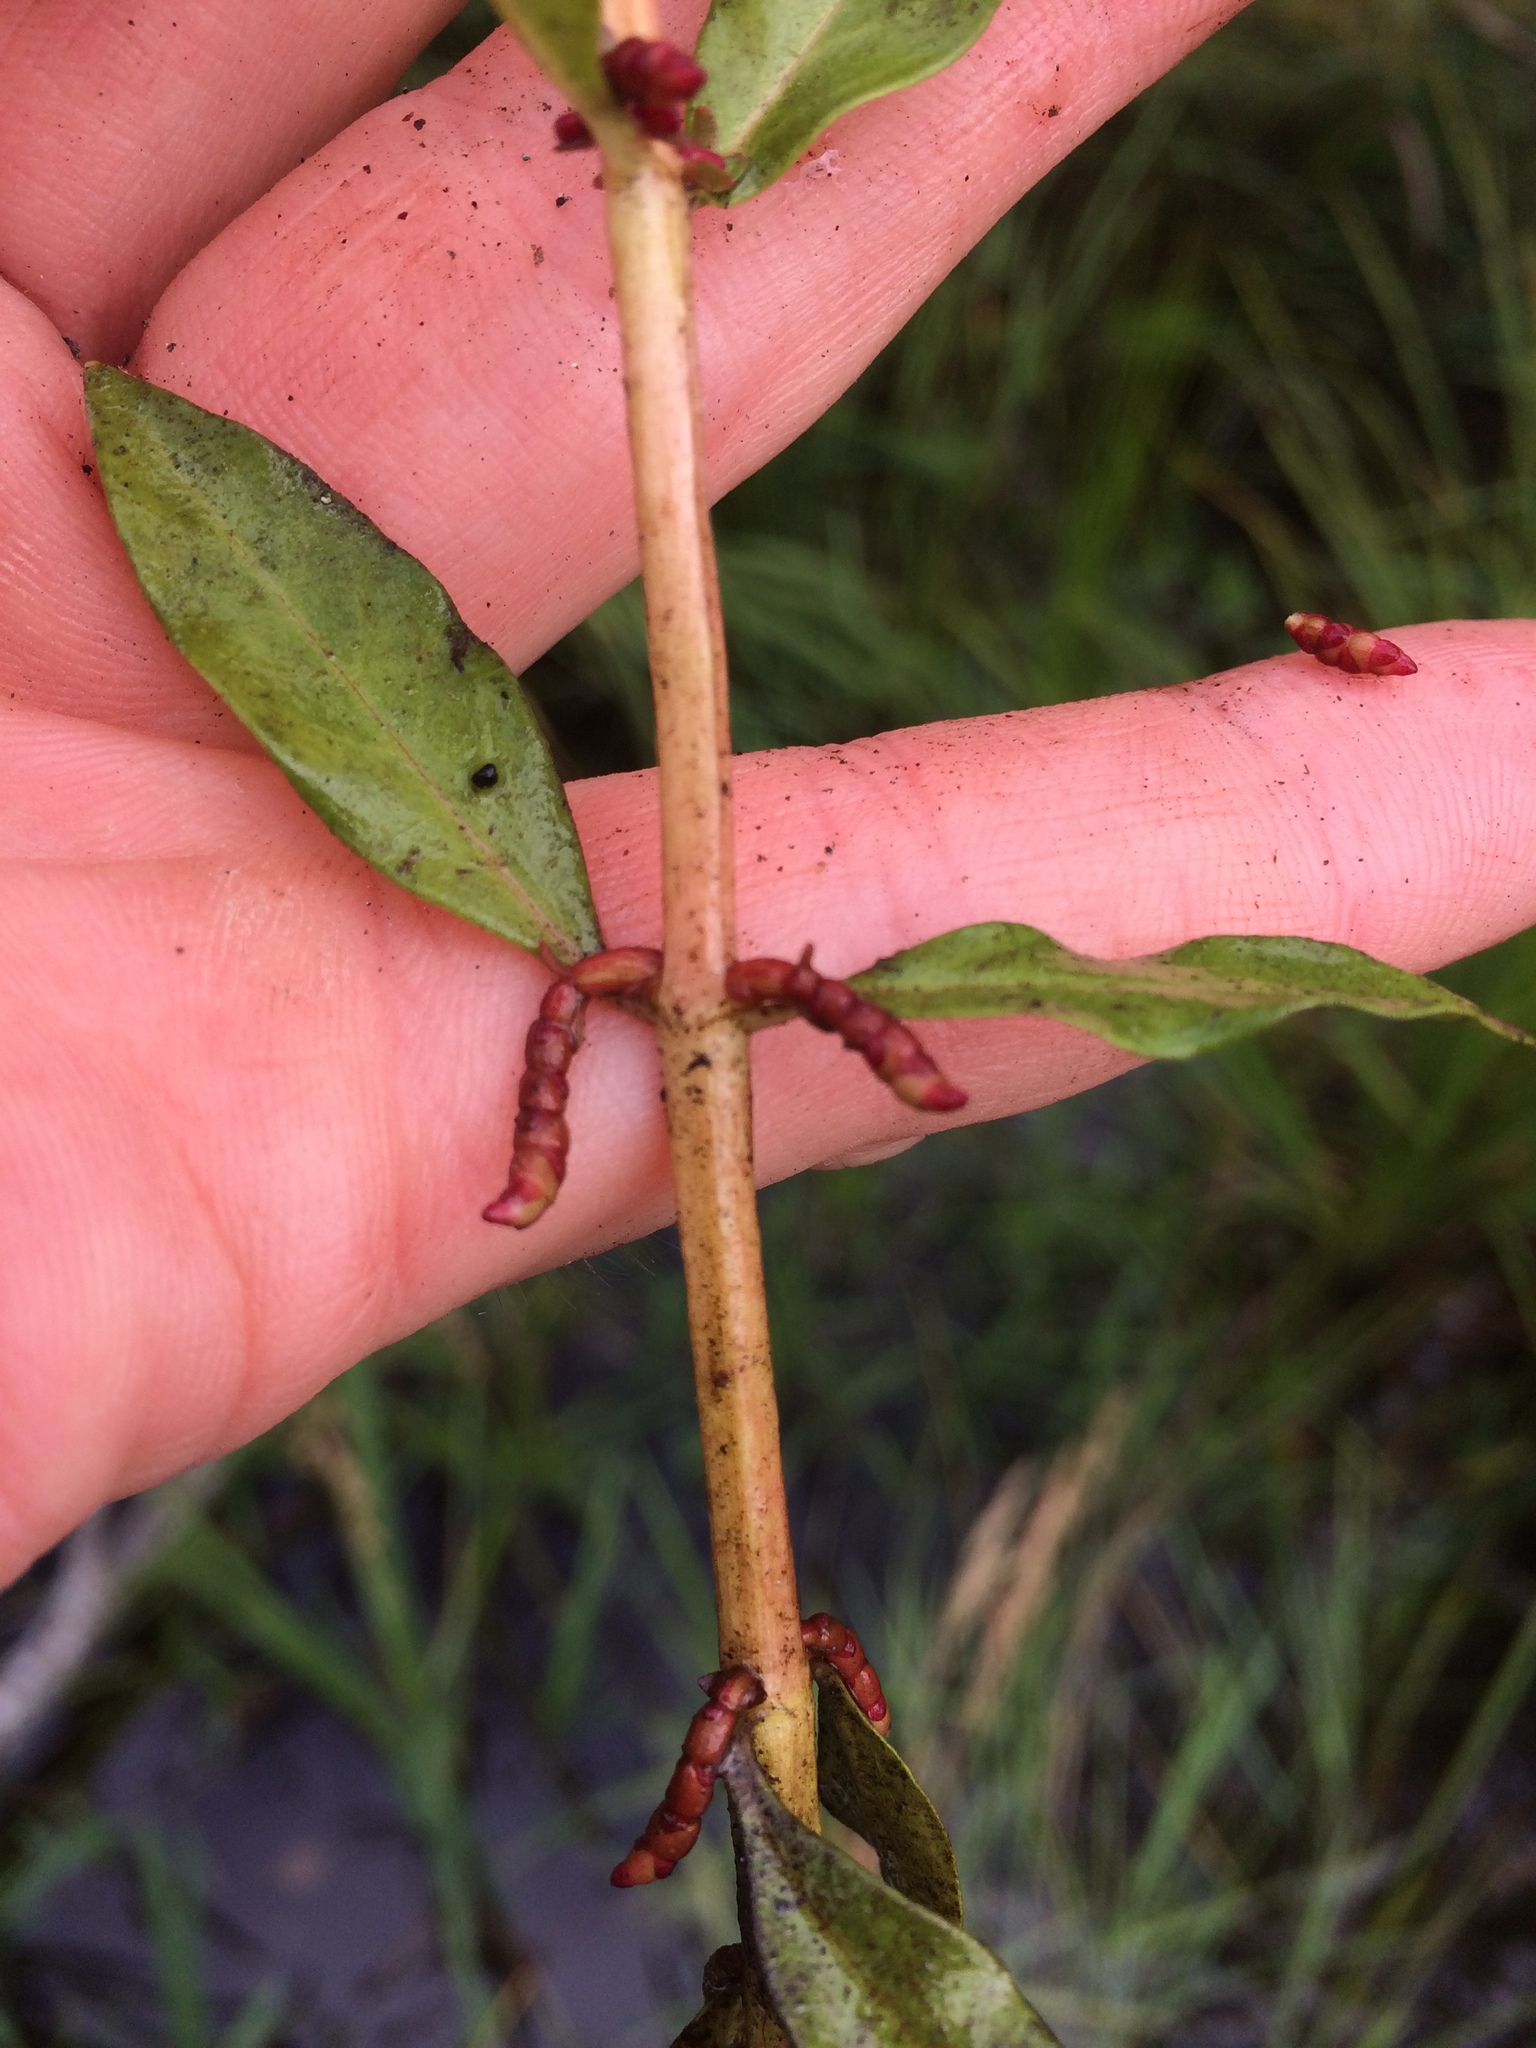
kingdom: Plantae
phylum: Tracheophyta
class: Magnoliopsida
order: Ericales
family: Primulaceae
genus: Lysimachia
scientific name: Lysimachia terrestris
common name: Lake loosestrife
